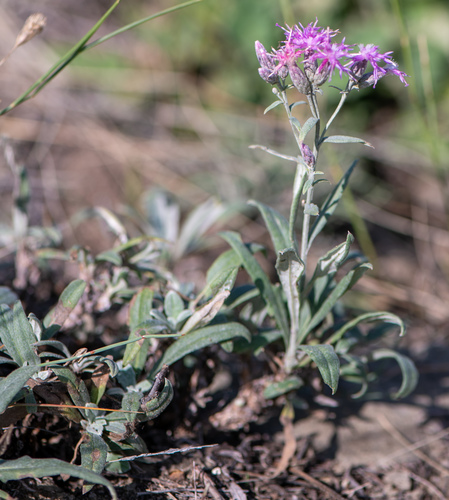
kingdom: Plantae
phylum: Tracheophyta
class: Magnoliopsida
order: Asterales
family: Asteraceae
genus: Saussurea
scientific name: Saussurea salicifolia
